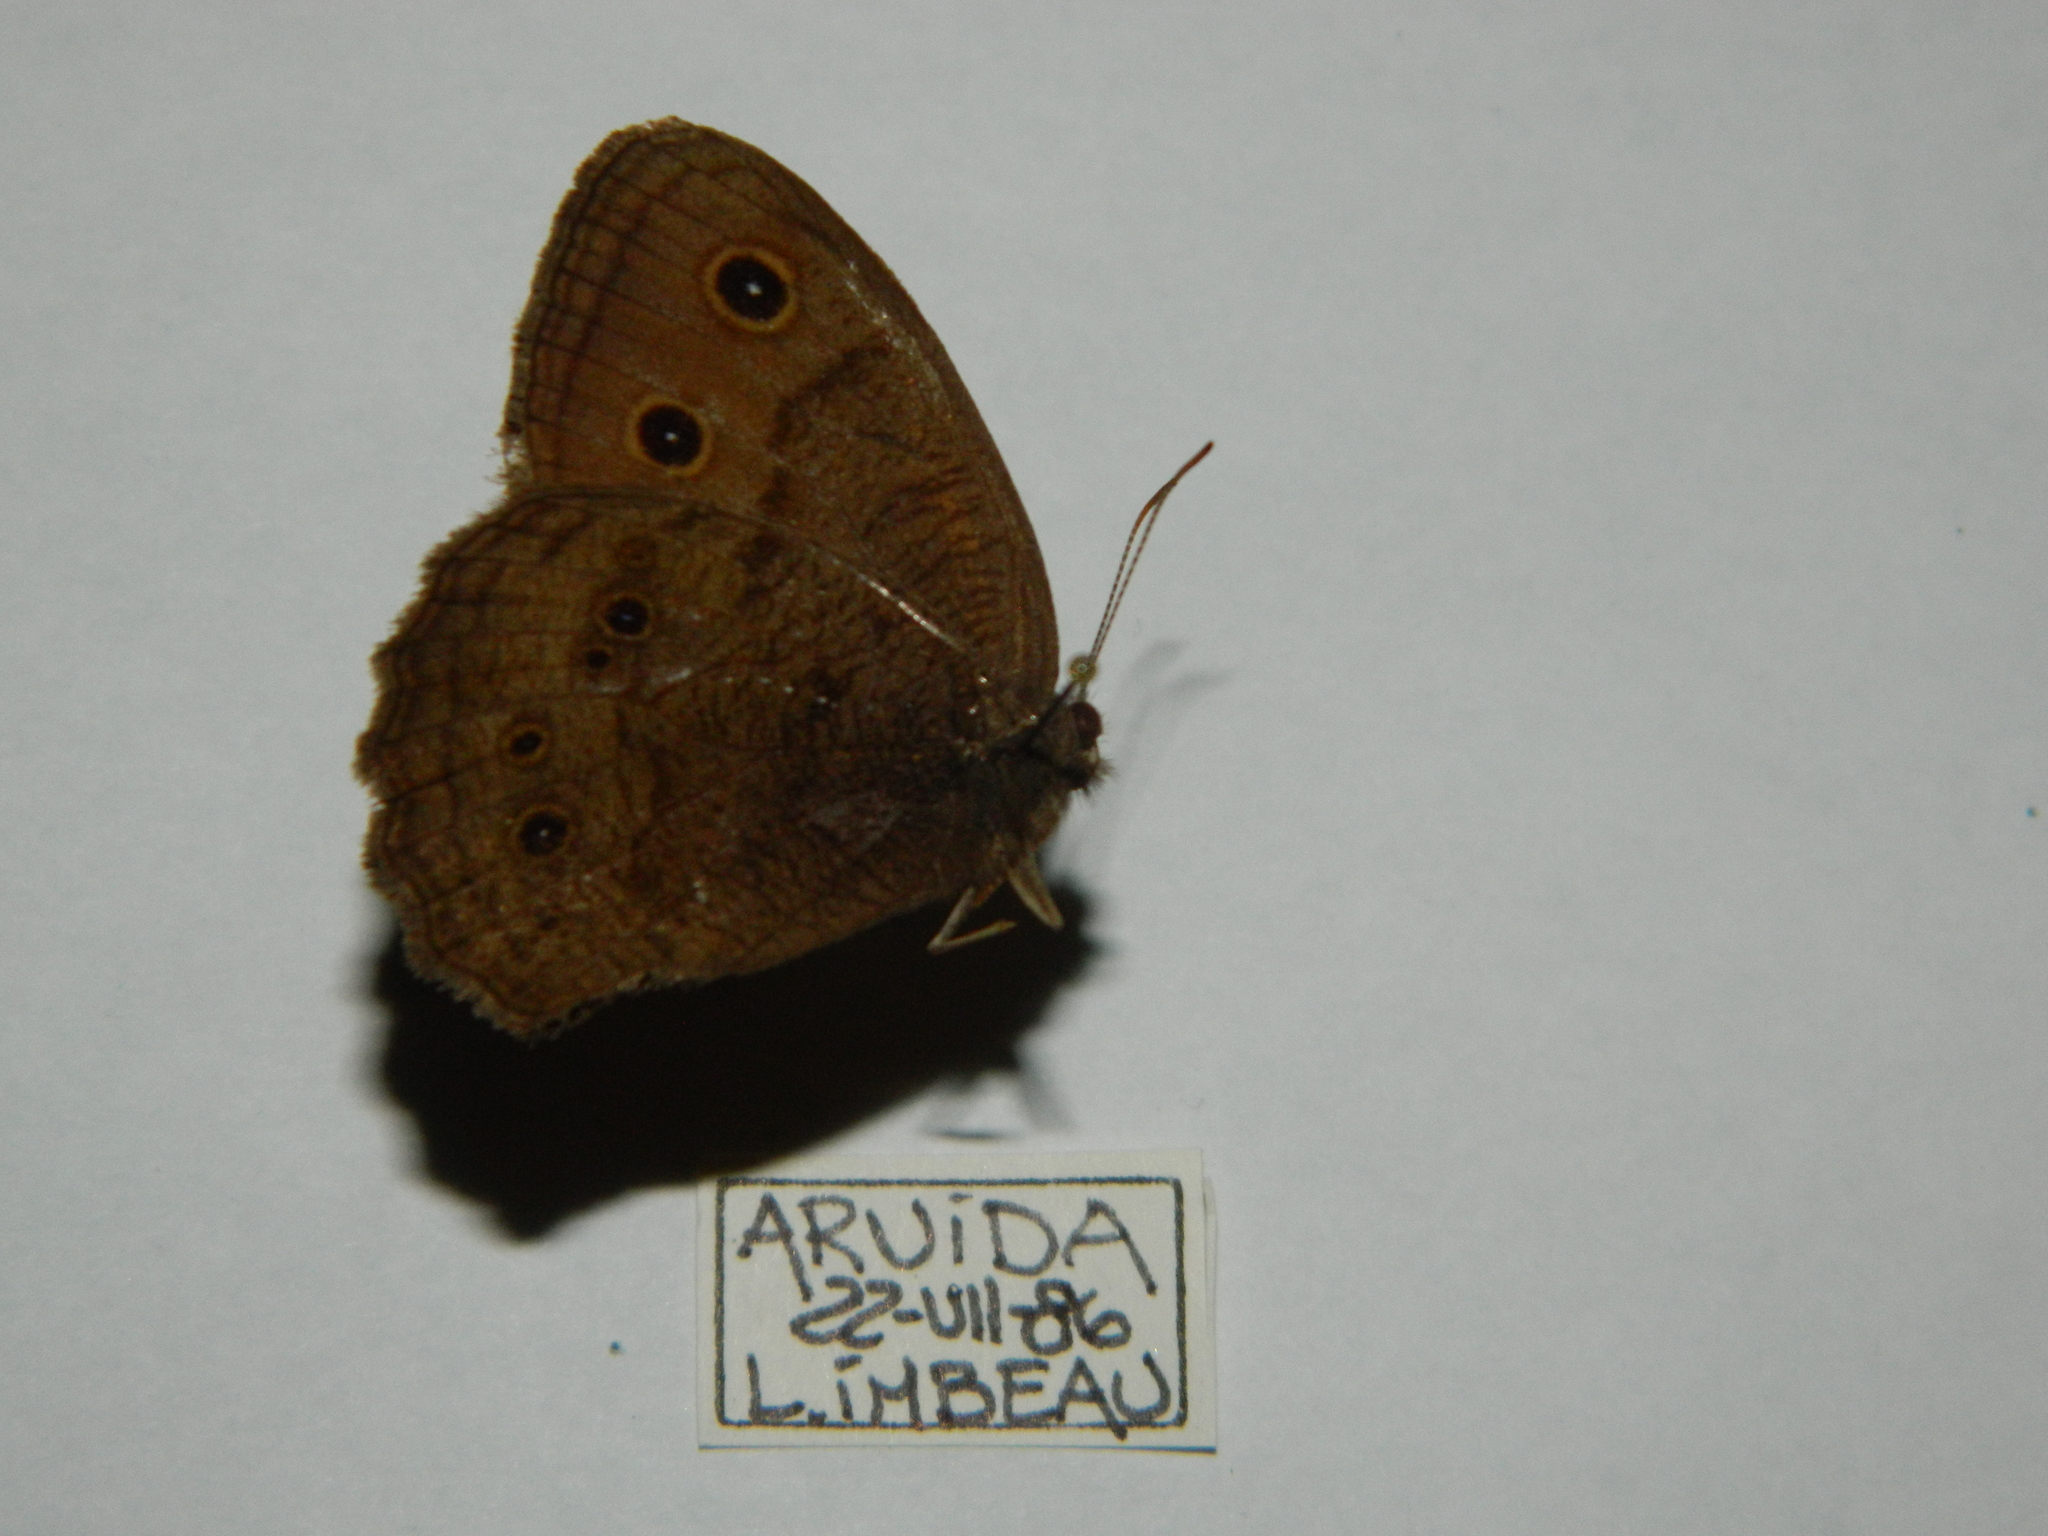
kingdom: Animalia
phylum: Arthropoda
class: Insecta
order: Lepidoptera
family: Nymphalidae
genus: Cercyonis
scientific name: Cercyonis pegala
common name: Common wood-nymph
